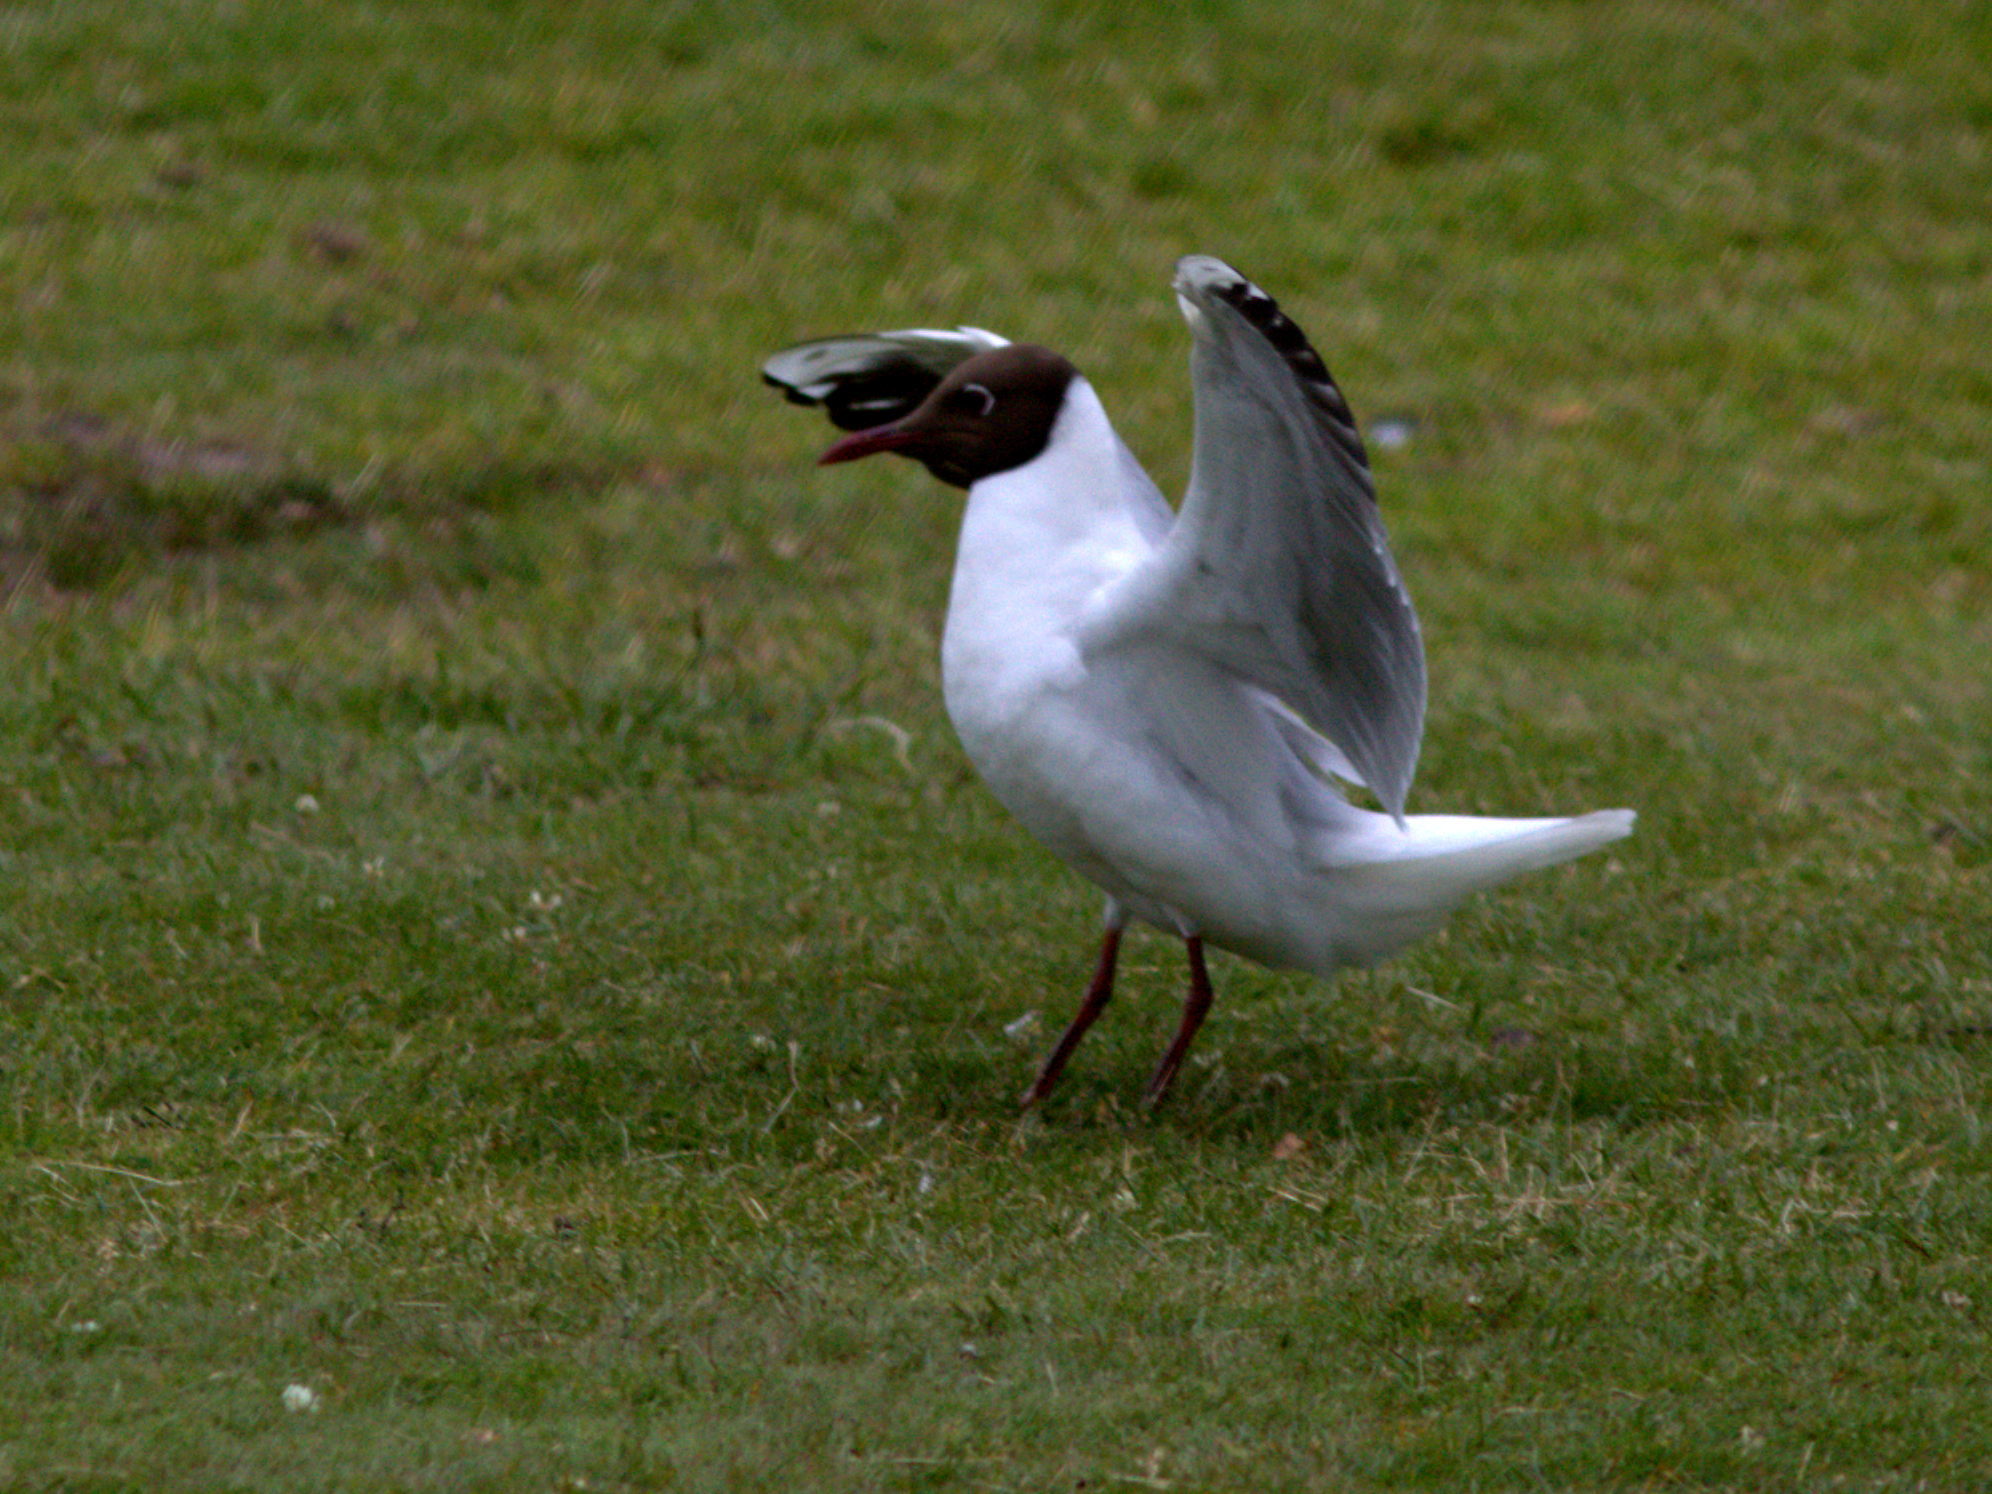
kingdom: Animalia
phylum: Chordata
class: Aves
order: Charadriiformes
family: Laridae
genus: Chroicocephalus
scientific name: Chroicocephalus ridibundus
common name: Black-headed gull
